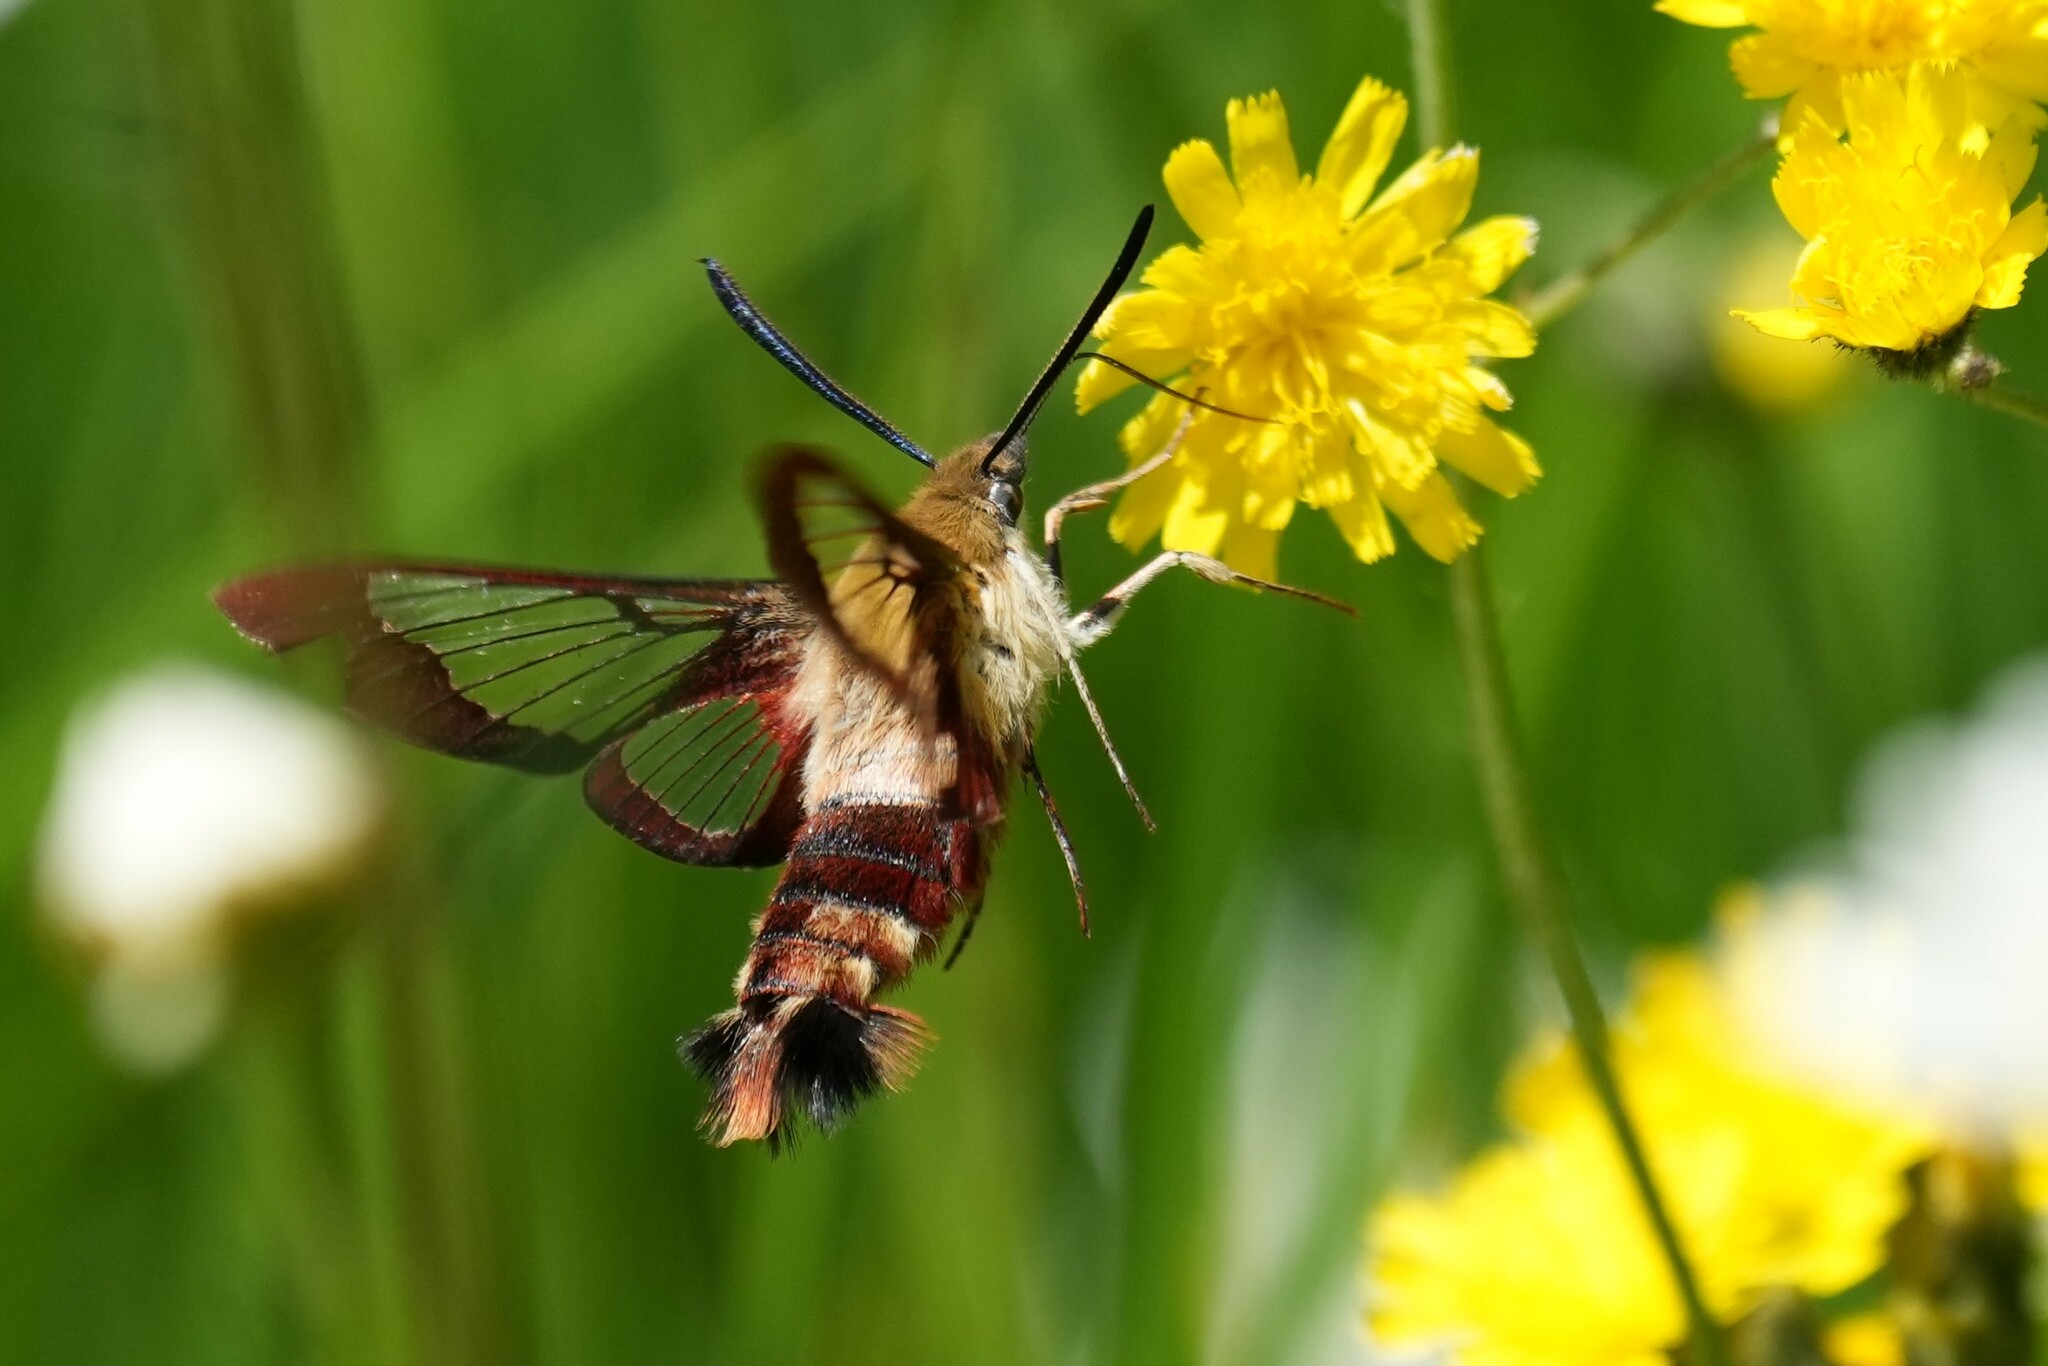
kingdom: Animalia
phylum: Arthropoda
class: Insecta
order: Lepidoptera
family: Sphingidae
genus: Hemaris
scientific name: Hemaris thysbe
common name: Common clear-wing
